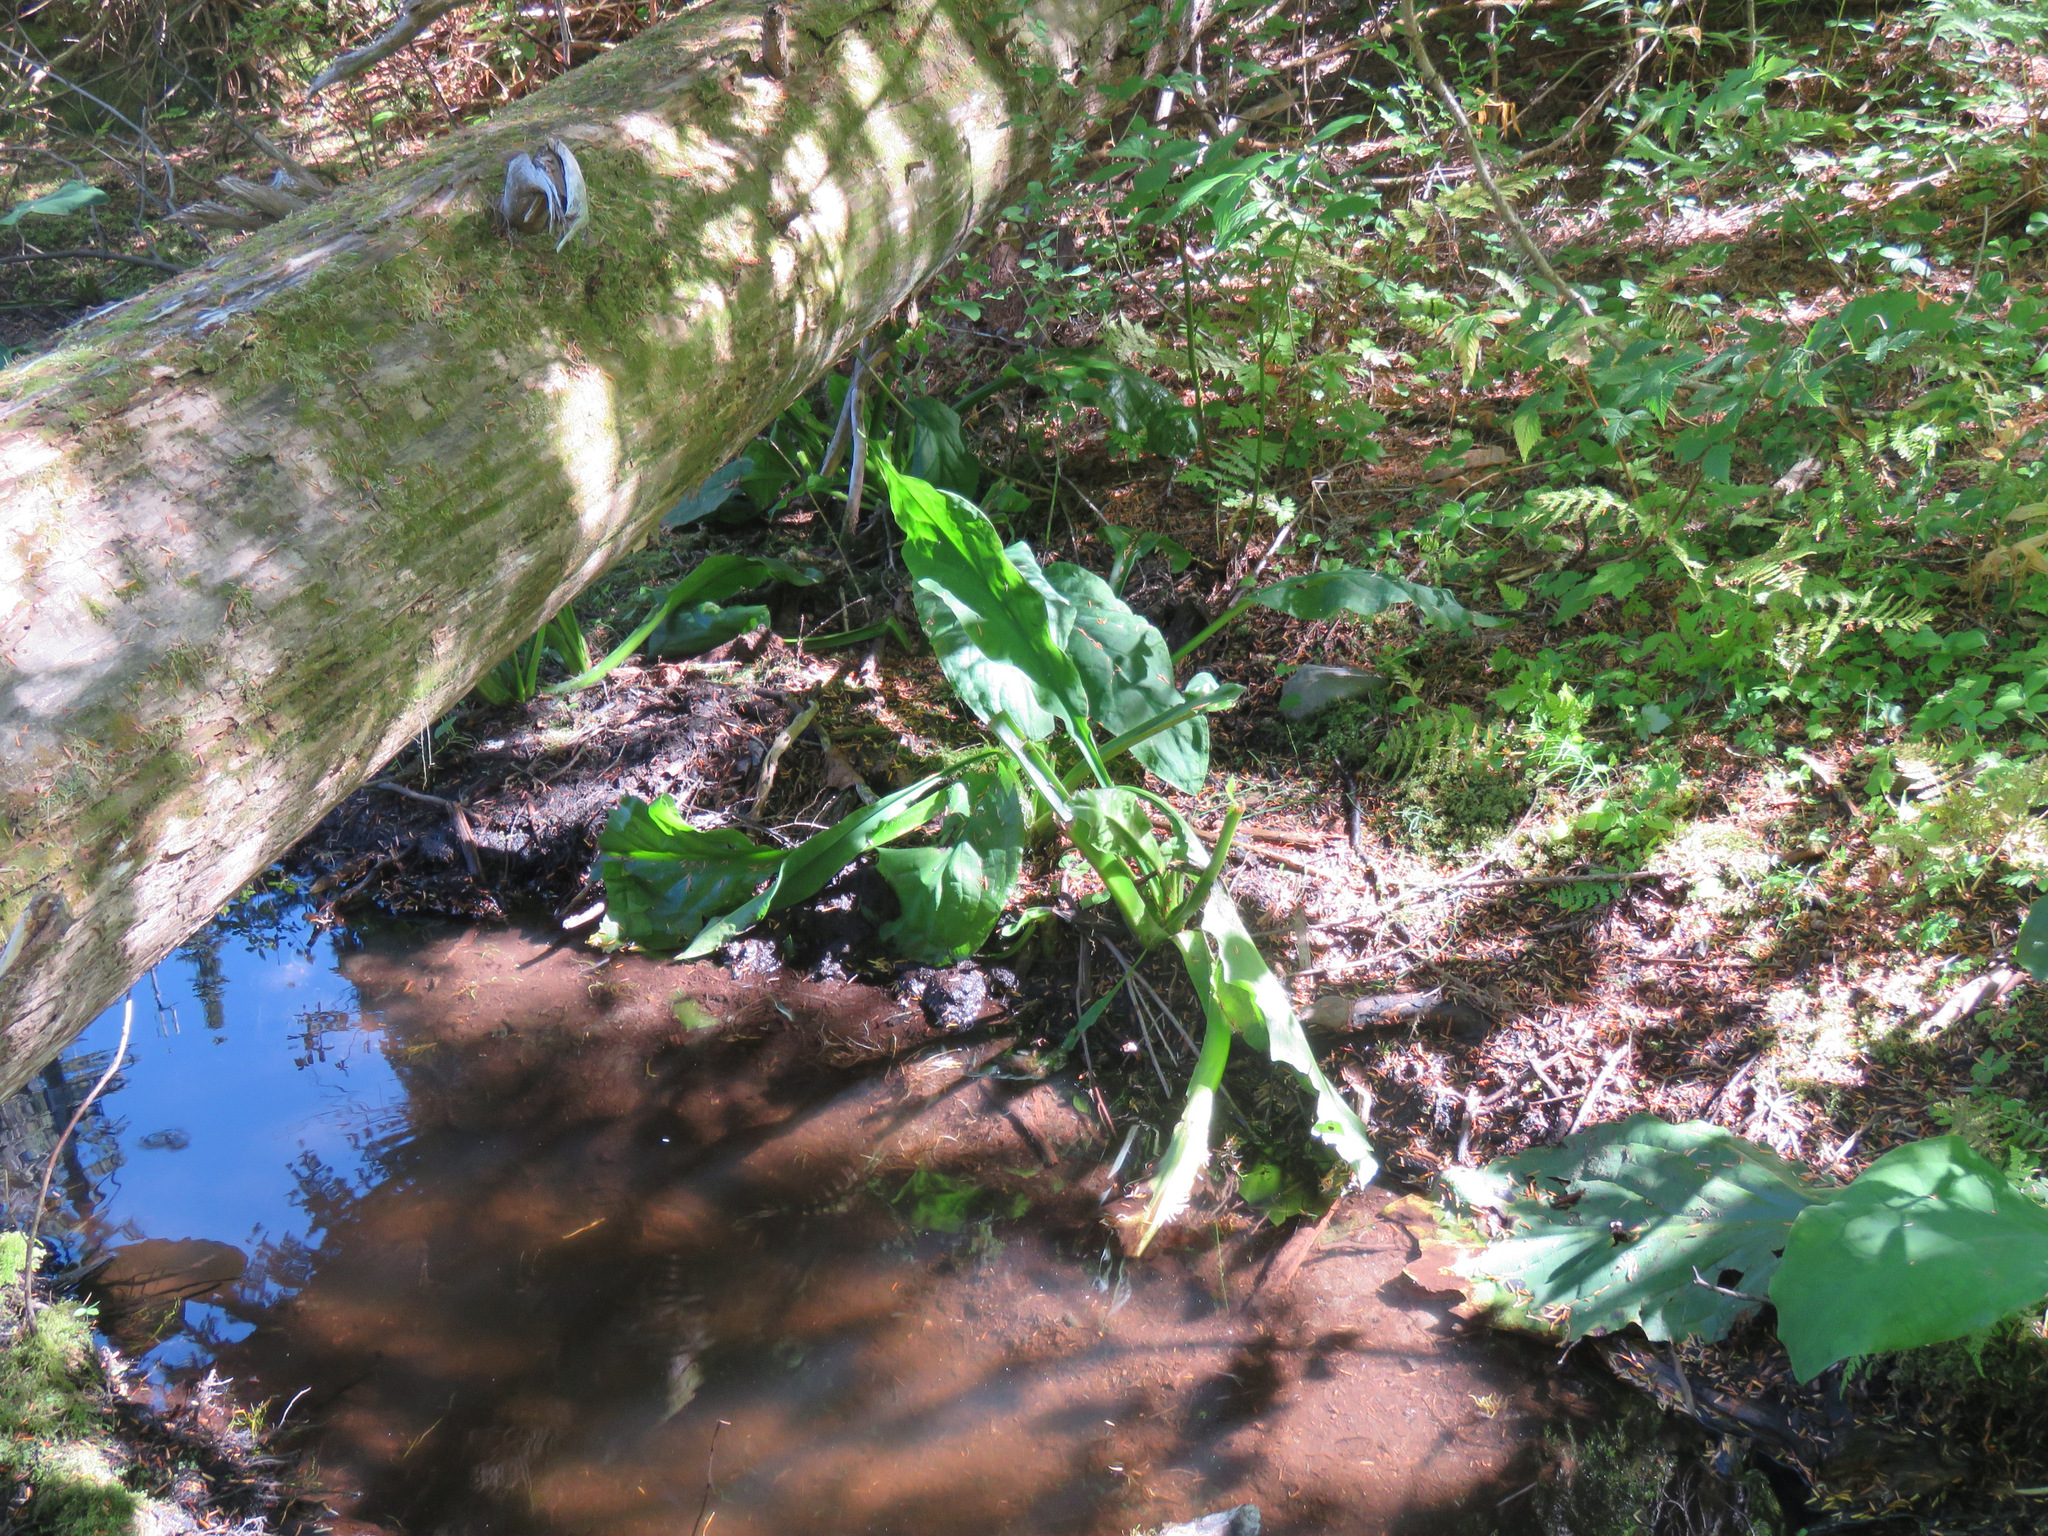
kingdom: Plantae
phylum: Tracheophyta
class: Liliopsida
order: Alismatales
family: Araceae
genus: Lysichiton
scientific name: Lysichiton americanus
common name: American skunk cabbage
